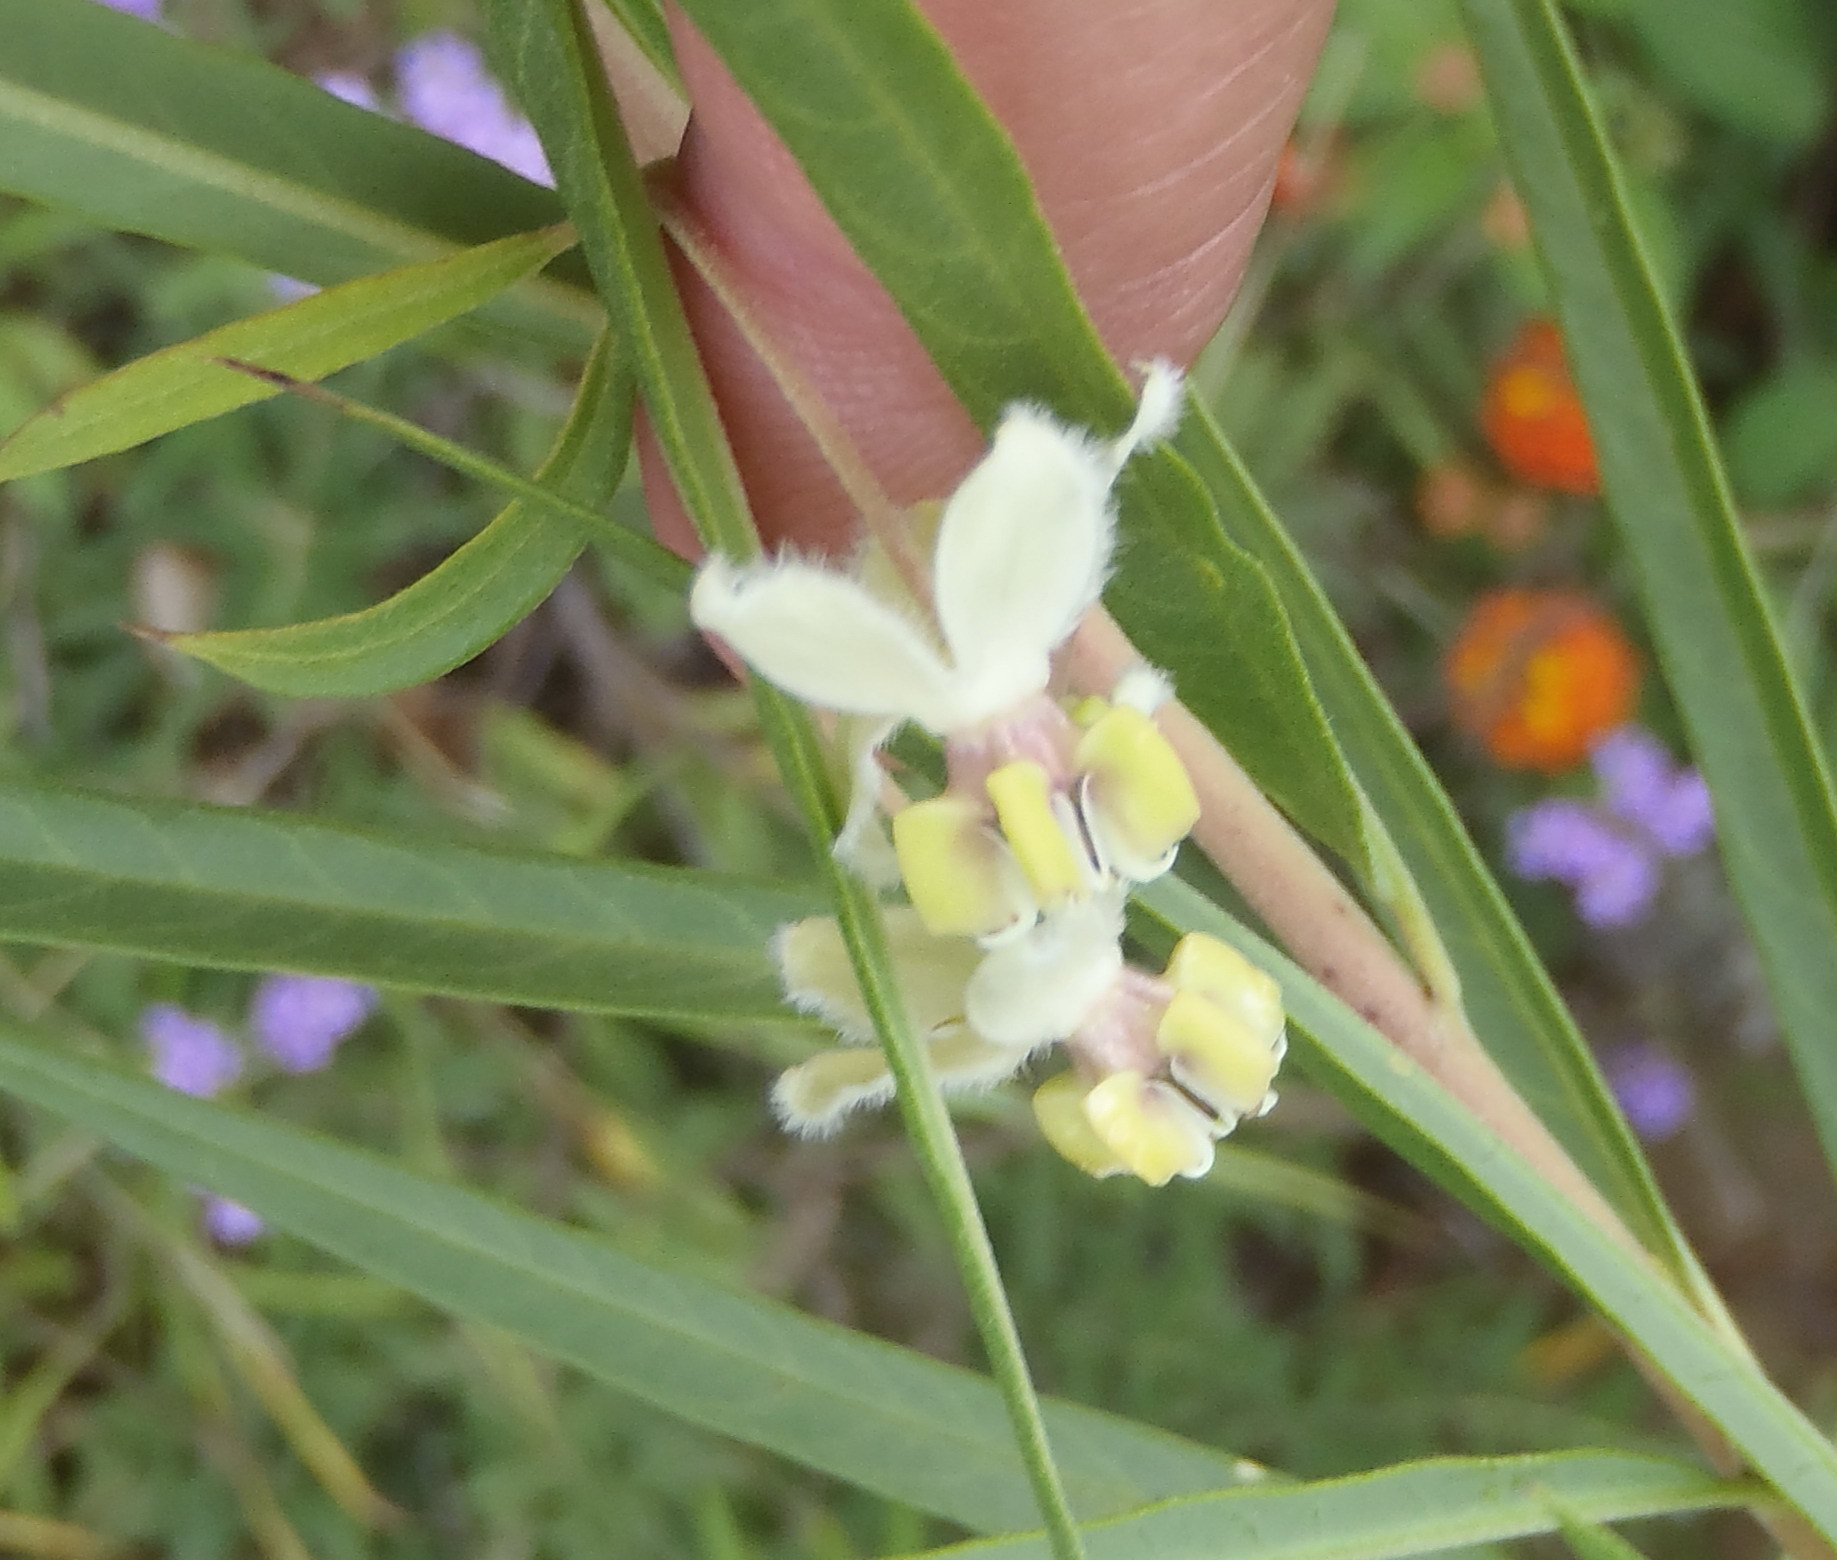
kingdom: Plantae
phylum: Tracheophyta
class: Magnoliopsida
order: Gentianales
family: Apocynaceae
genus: Gomphocarpus
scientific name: Gomphocarpus fruticosus
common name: Milkweed
